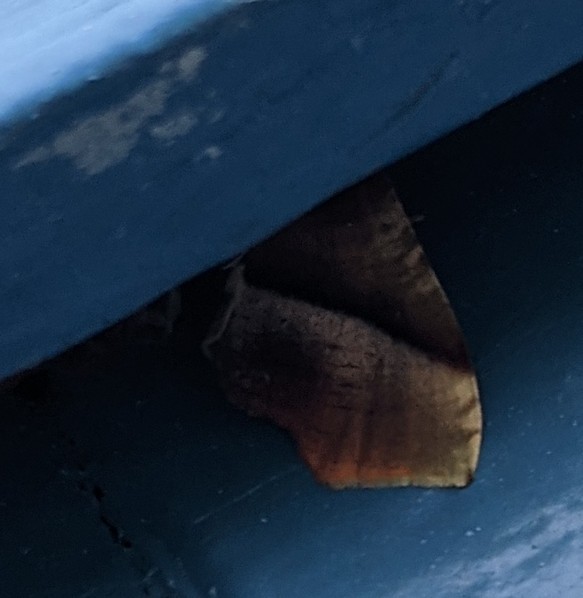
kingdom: Animalia
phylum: Arthropoda
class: Insecta
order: Lepidoptera
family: Geometridae
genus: Plagodis
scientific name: Plagodis phlogosaria
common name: Straight-lined plagodis
